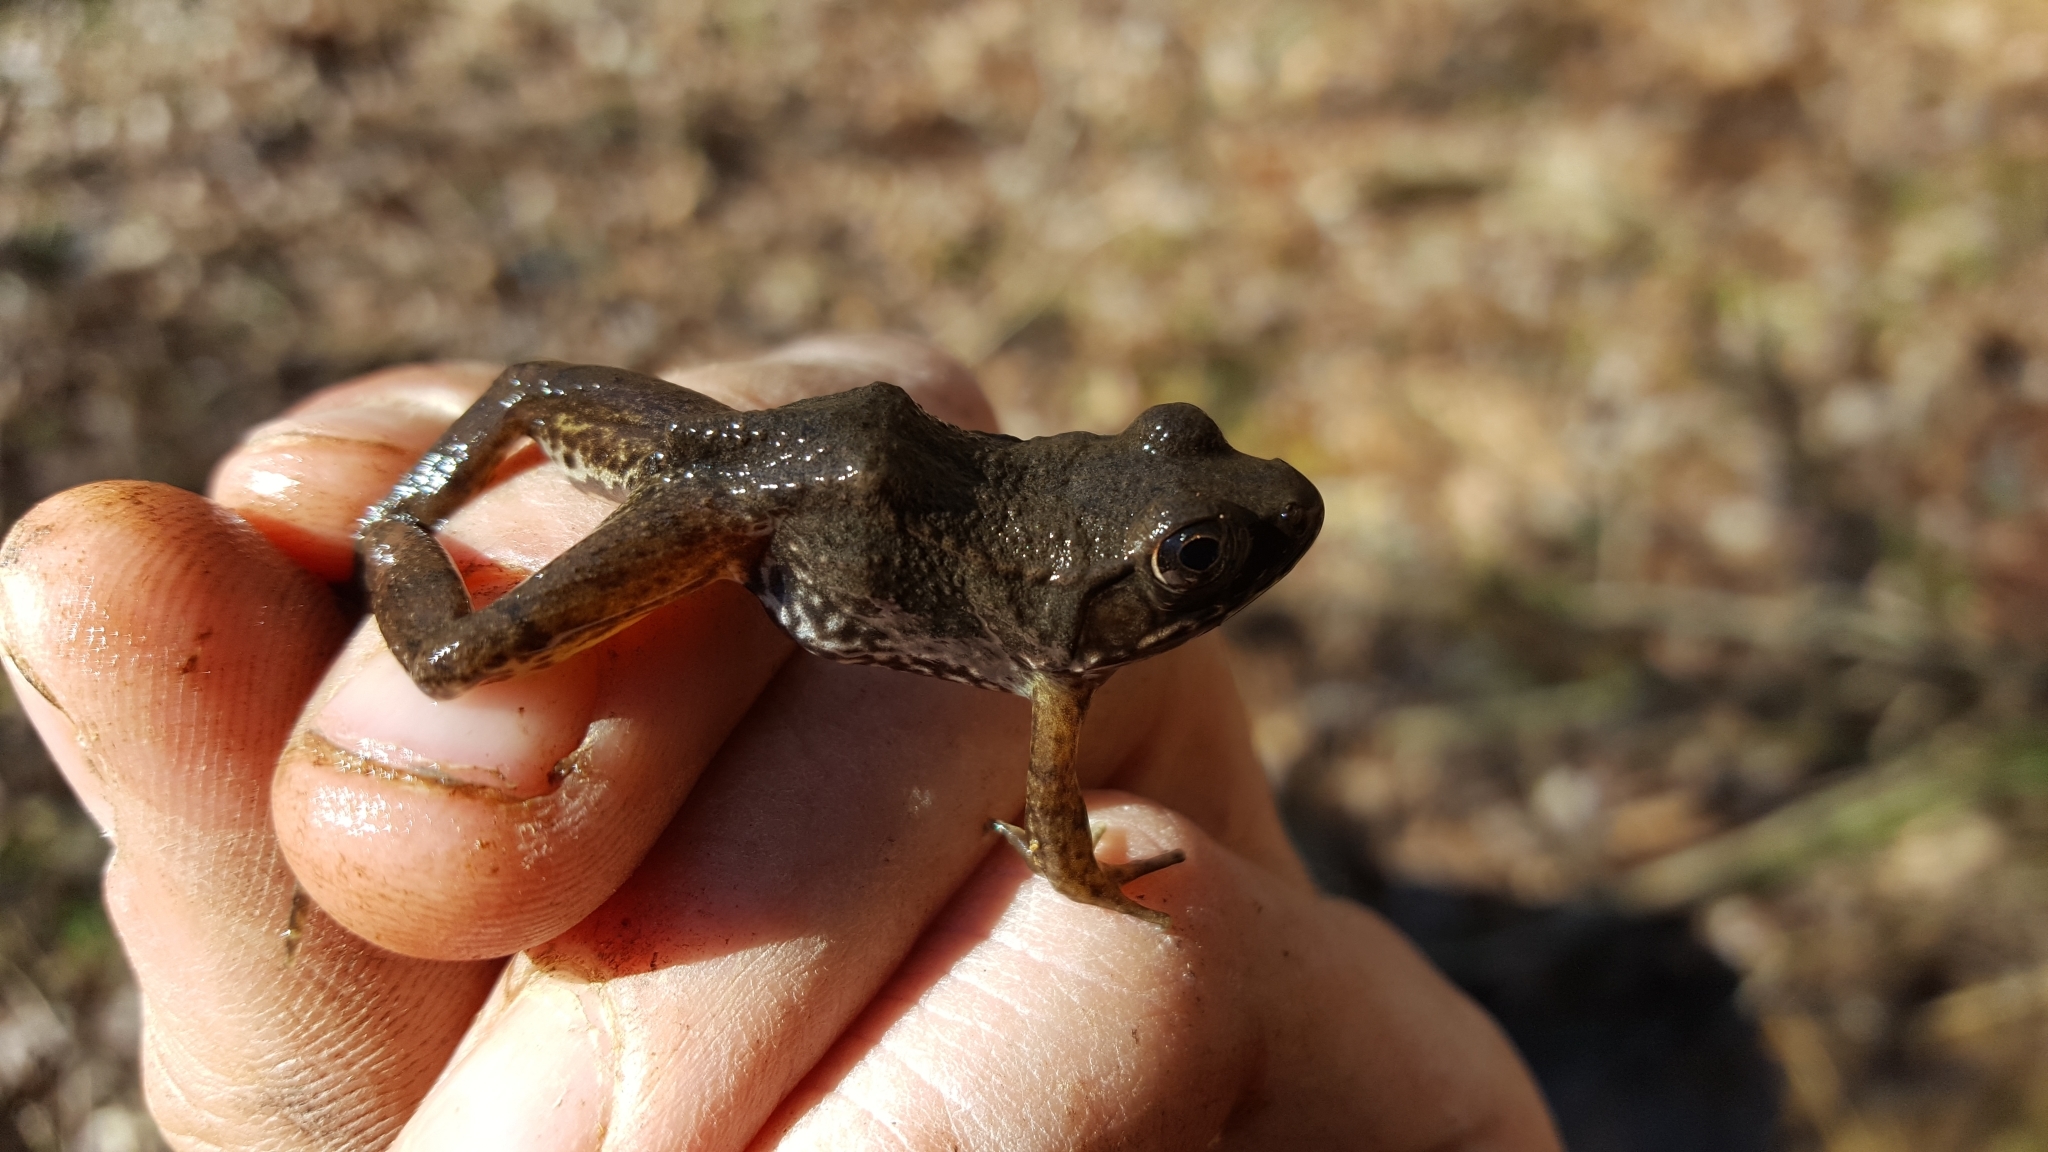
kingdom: Animalia
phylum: Chordata
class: Amphibia
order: Anura
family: Ranidae
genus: Lithobates
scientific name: Lithobates clamitans
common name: Green frog
